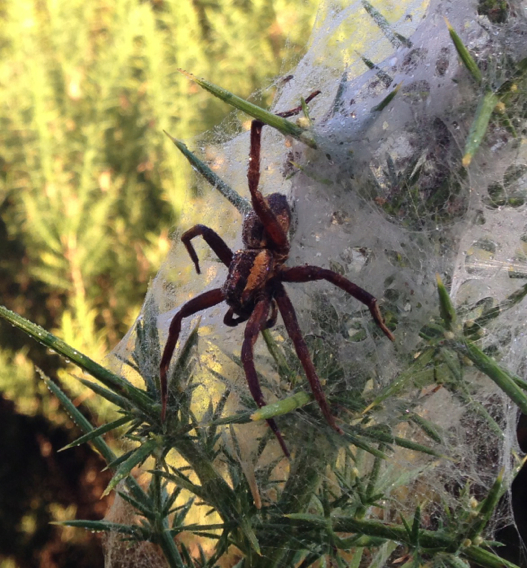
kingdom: Animalia
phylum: Arthropoda
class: Arachnida
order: Araneae
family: Pisauridae
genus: Dolomedes
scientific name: Dolomedes minor
